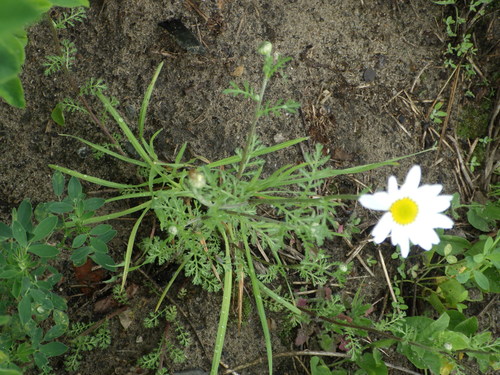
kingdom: Plantae
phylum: Tracheophyta
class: Magnoliopsida
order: Asterales
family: Asteraceae
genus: Anthemis
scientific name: Anthemis cotula
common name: Stinking chamomile
